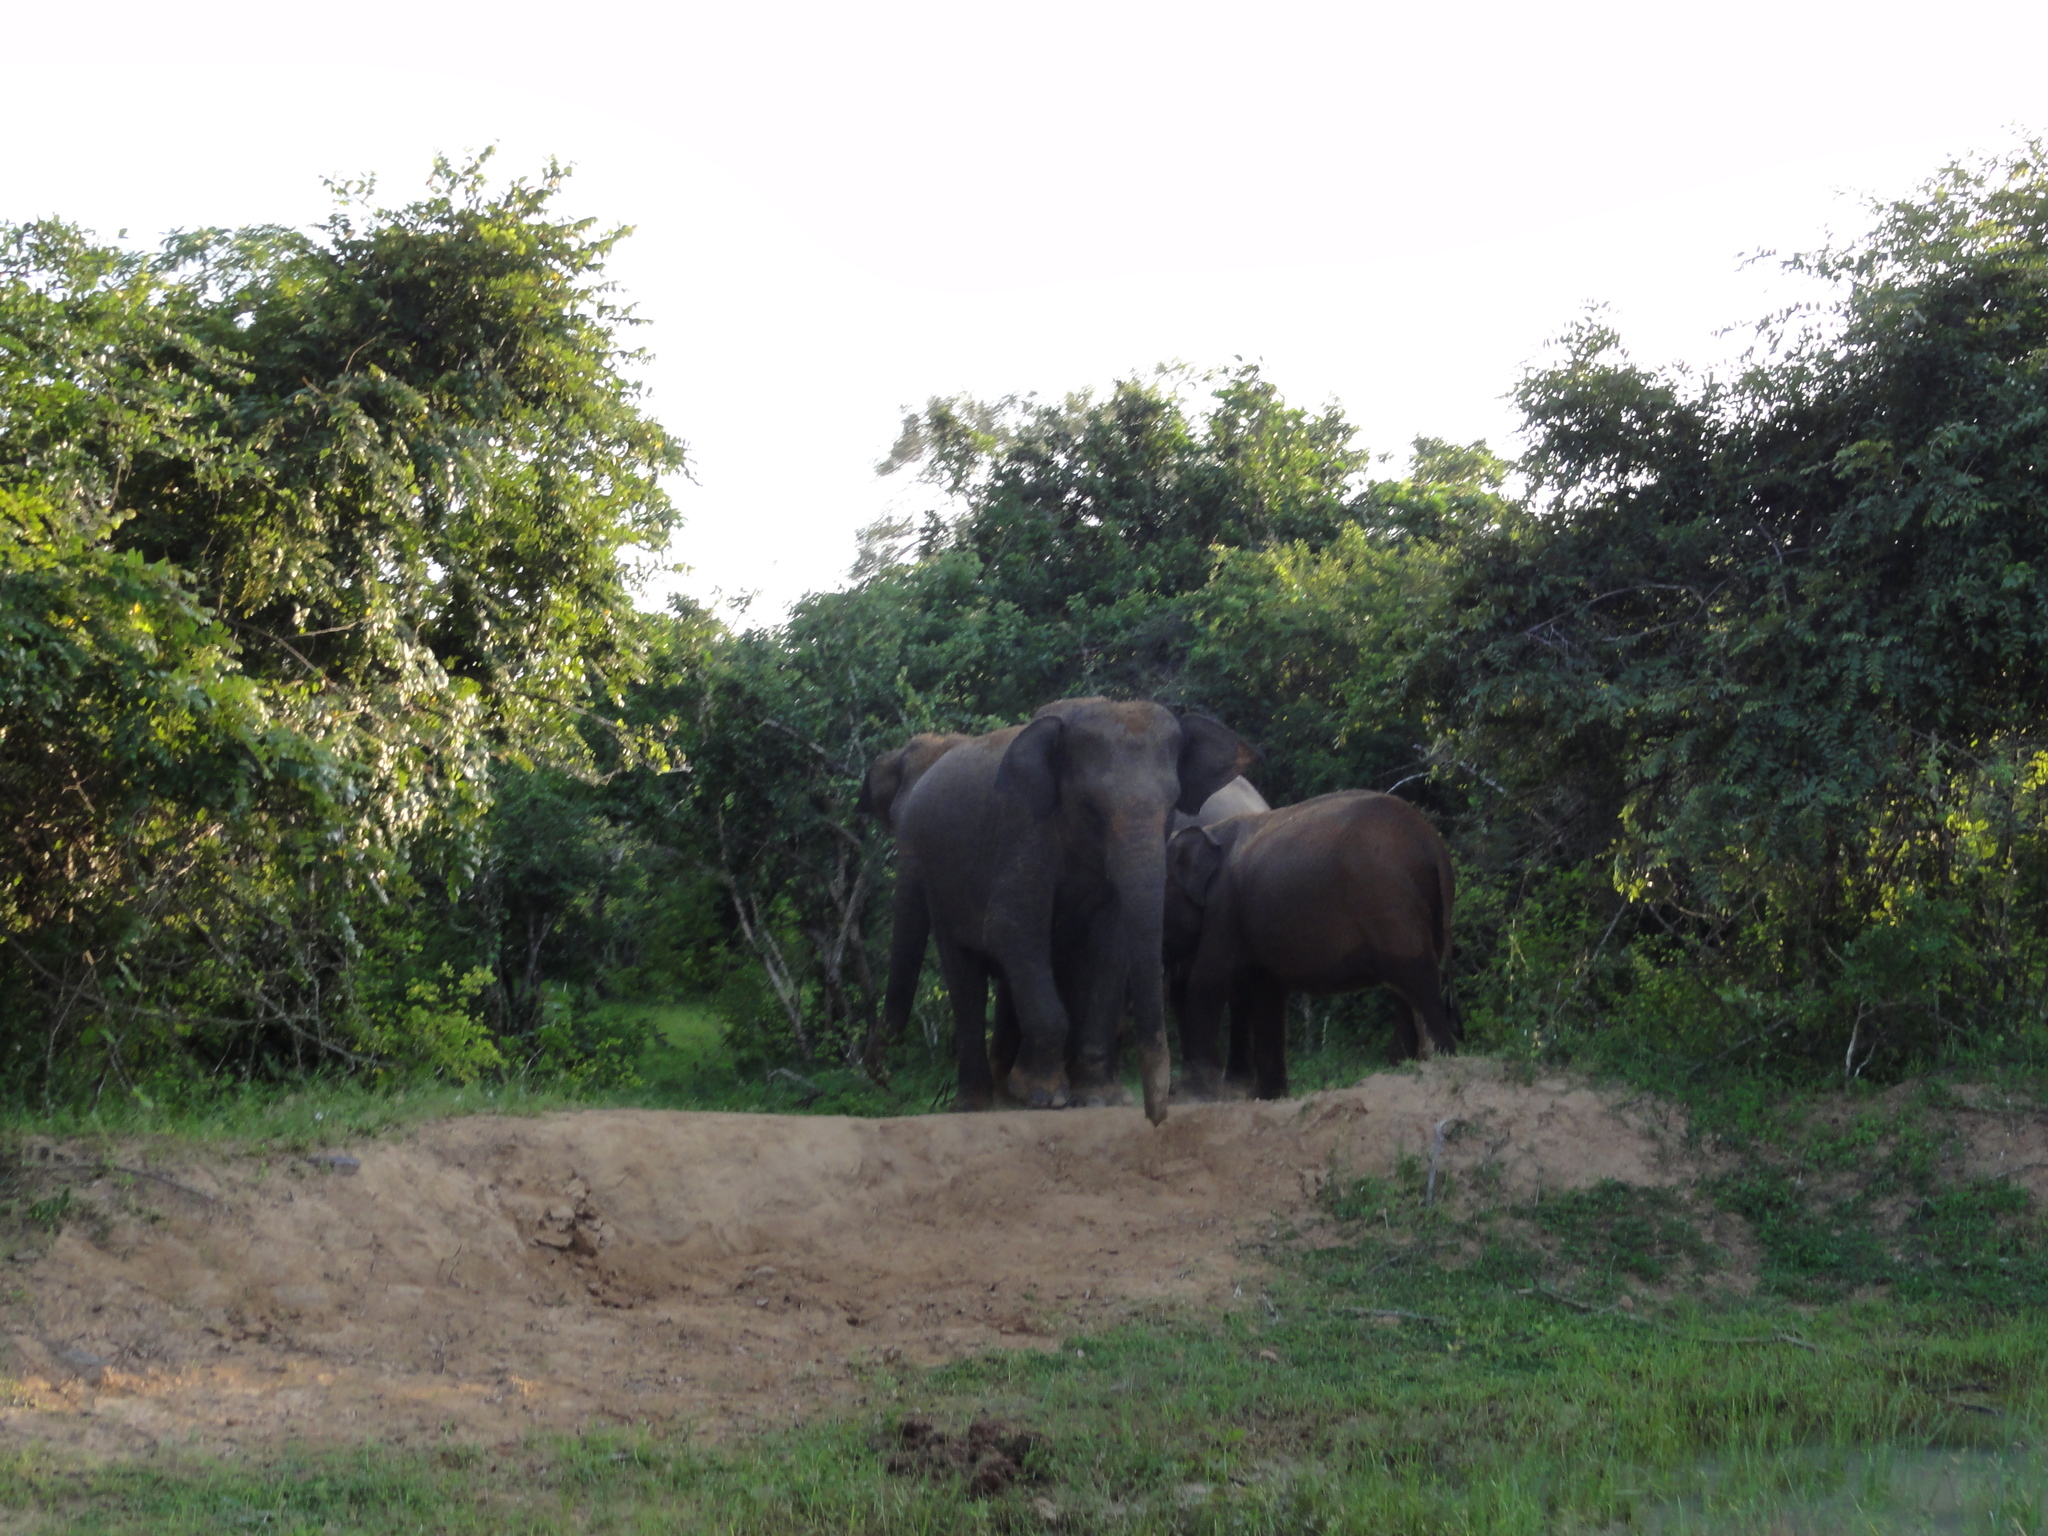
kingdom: Animalia
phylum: Chordata
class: Mammalia
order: Proboscidea
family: Elephantidae
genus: Elephas
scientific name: Elephas maximus
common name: Asian elephant
